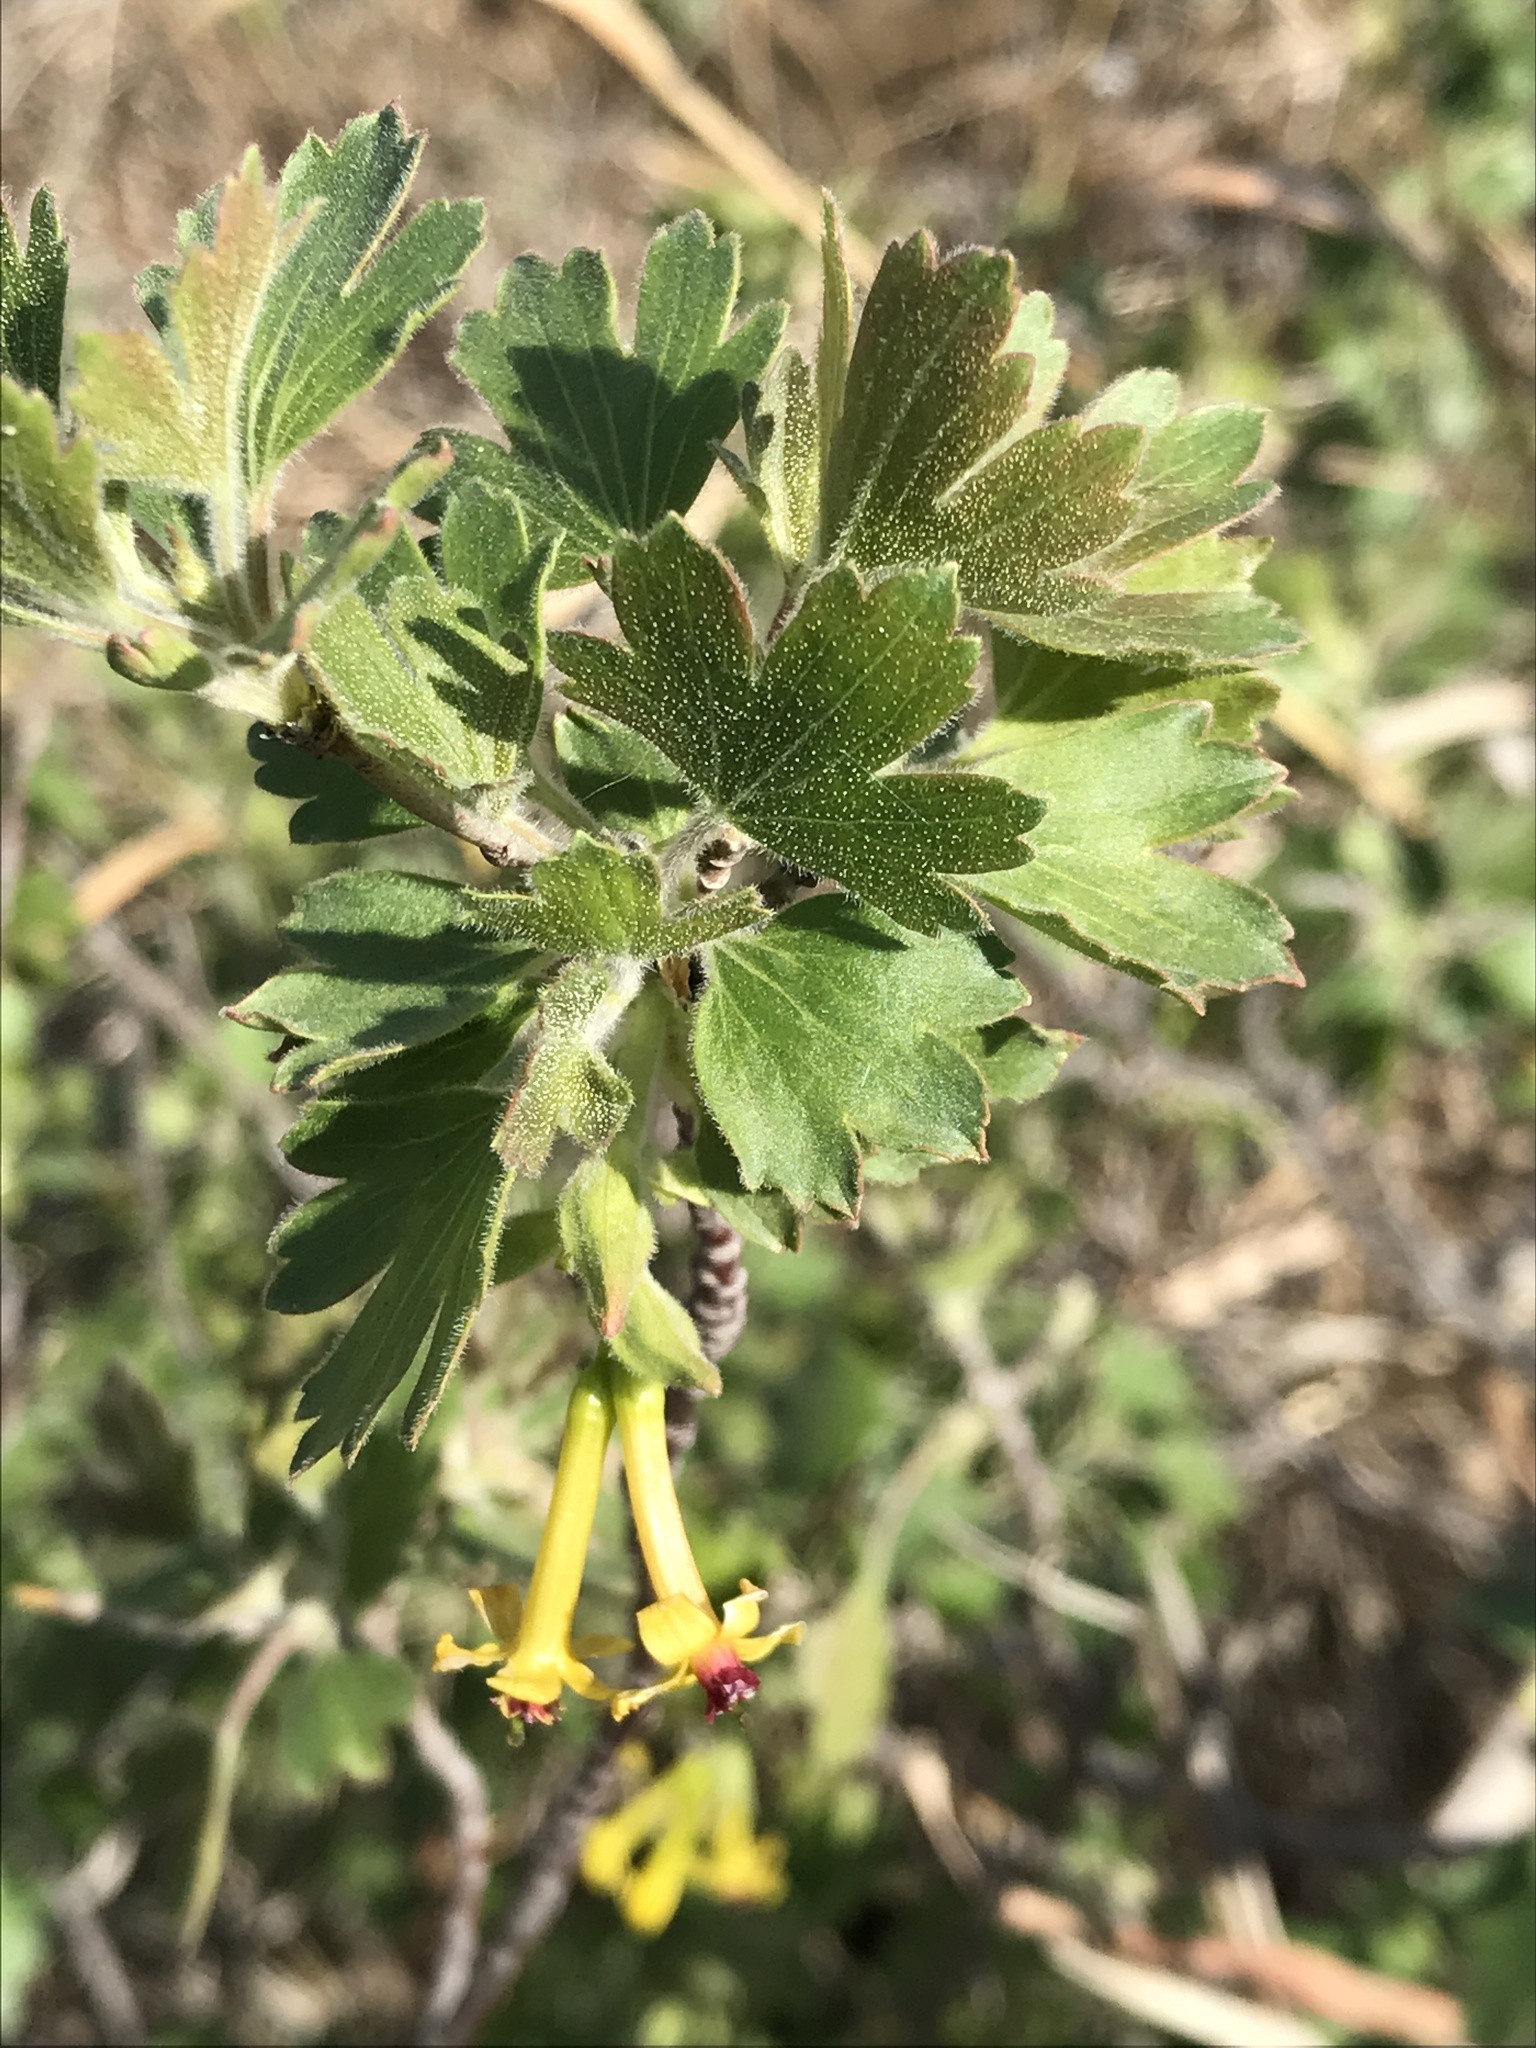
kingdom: Plantae
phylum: Tracheophyta
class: Magnoliopsida
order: Saxifragales
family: Grossulariaceae
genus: Ribes
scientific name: Ribes aureum
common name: Golden currant
